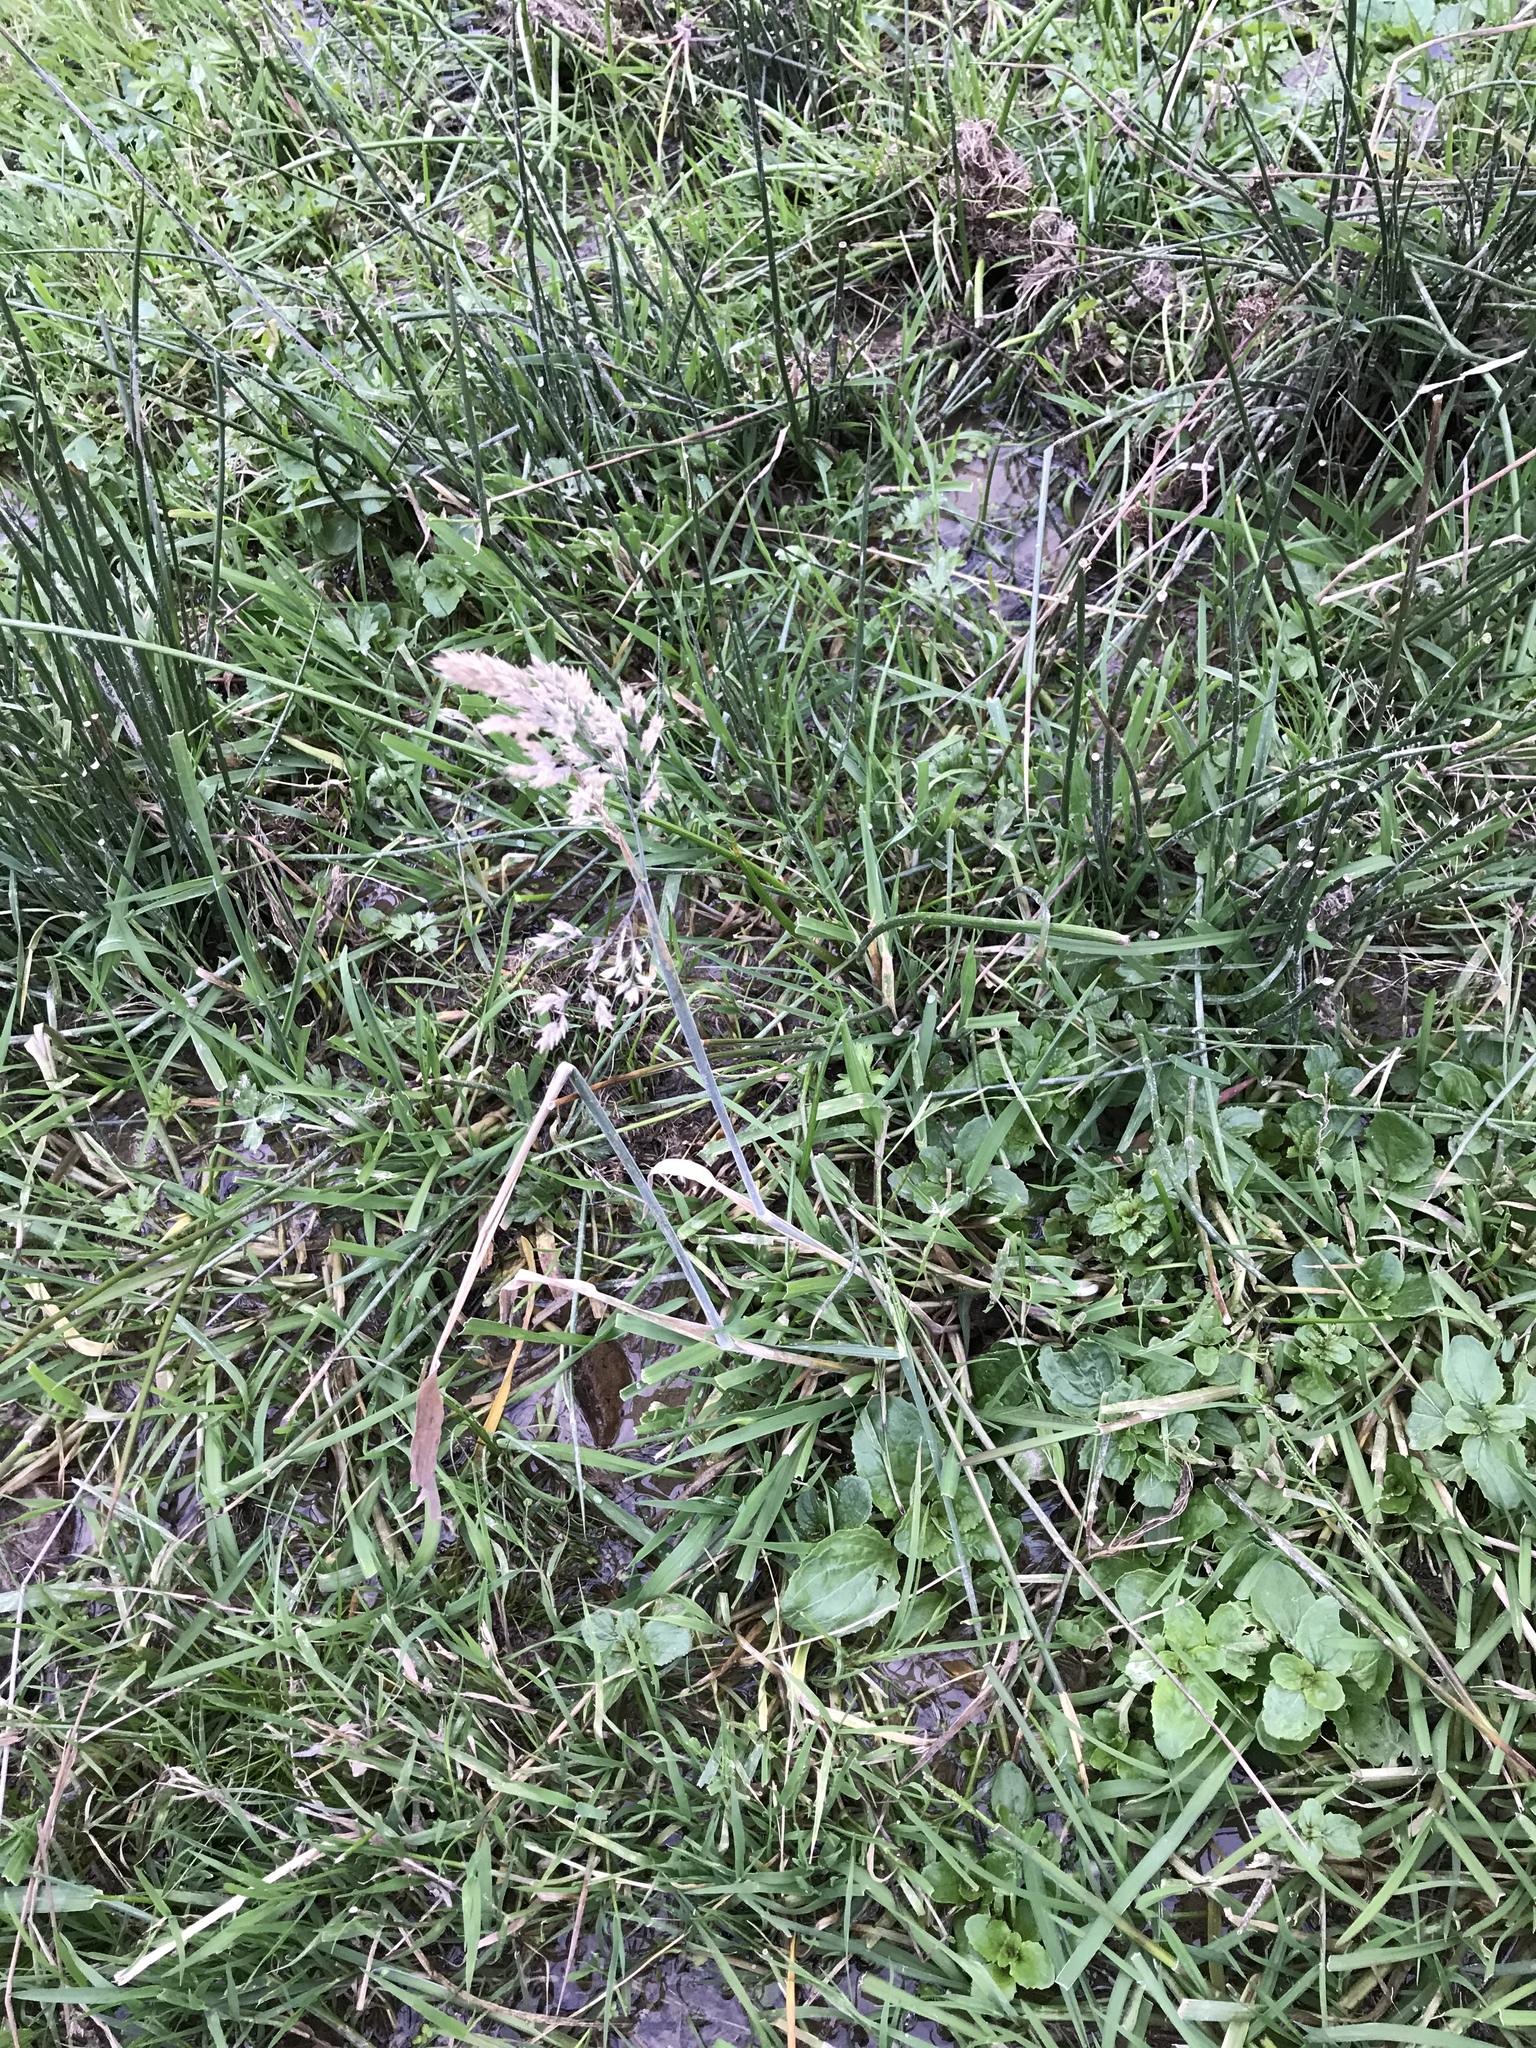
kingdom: Plantae
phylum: Tracheophyta
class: Liliopsida
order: Poales
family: Poaceae
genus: Holcus
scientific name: Holcus lanatus
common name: Yorkshire-fog
